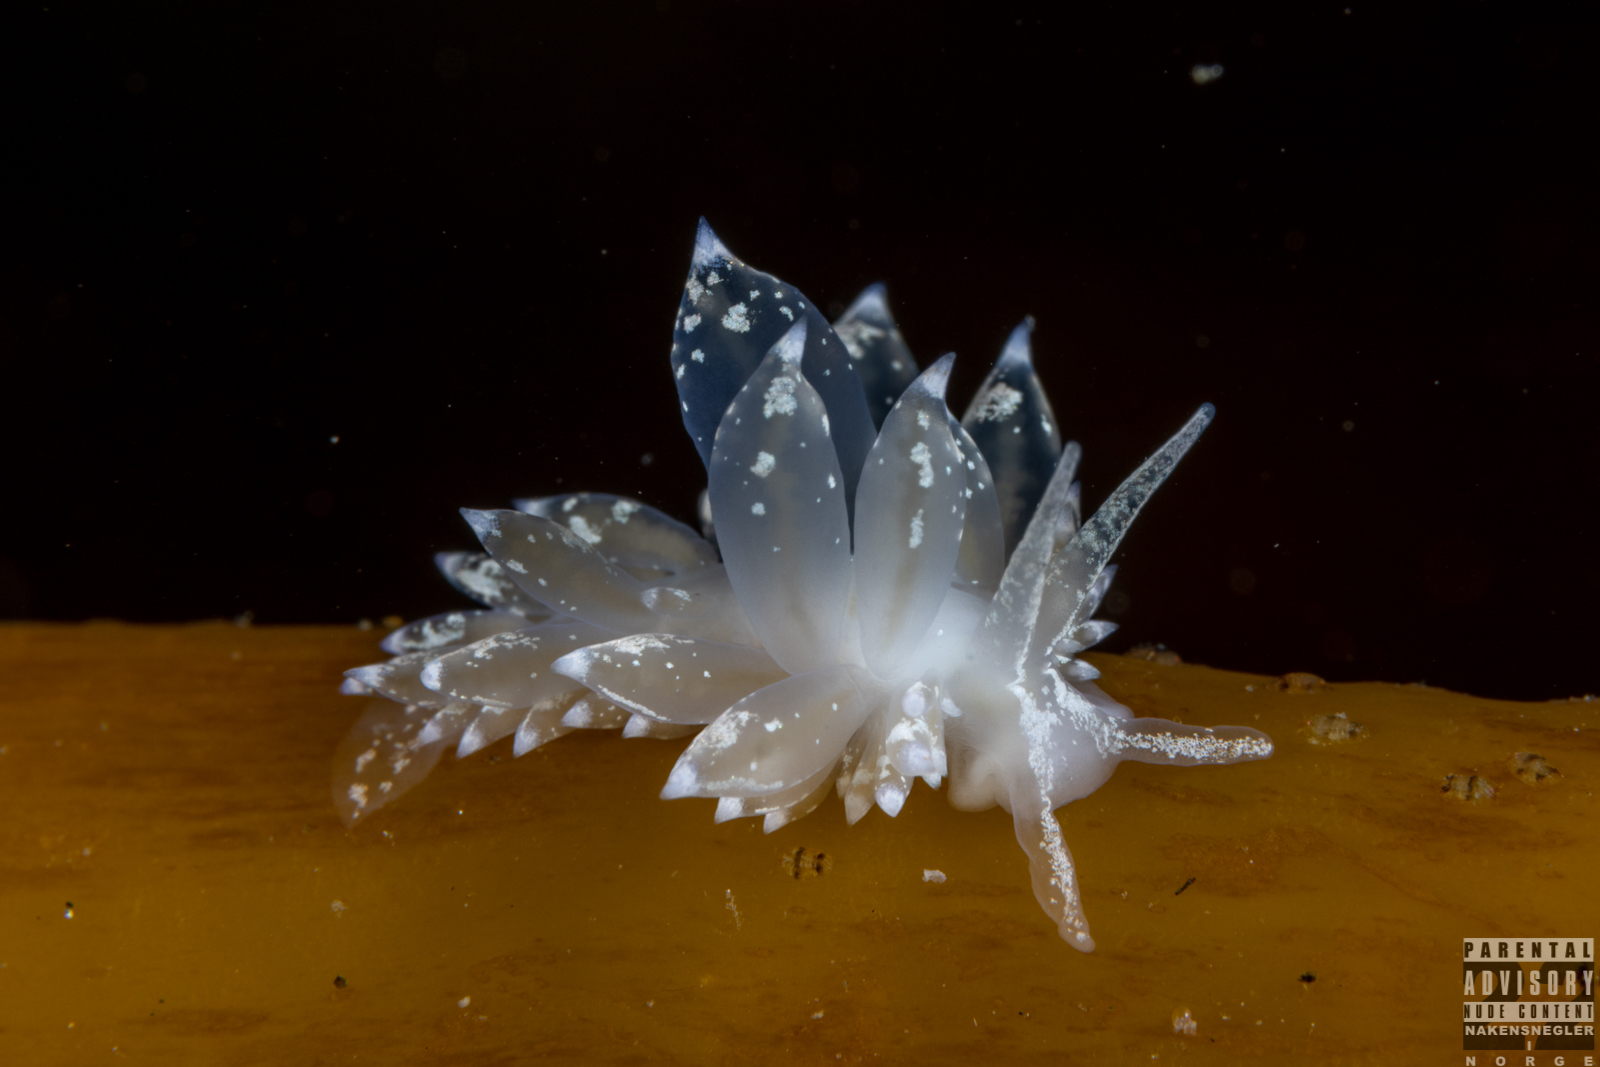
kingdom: Animalia
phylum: Mollusca
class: Gastropoda
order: Nudibranchia
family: Eubranchidae
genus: Amphorina
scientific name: Amphorina pallida
